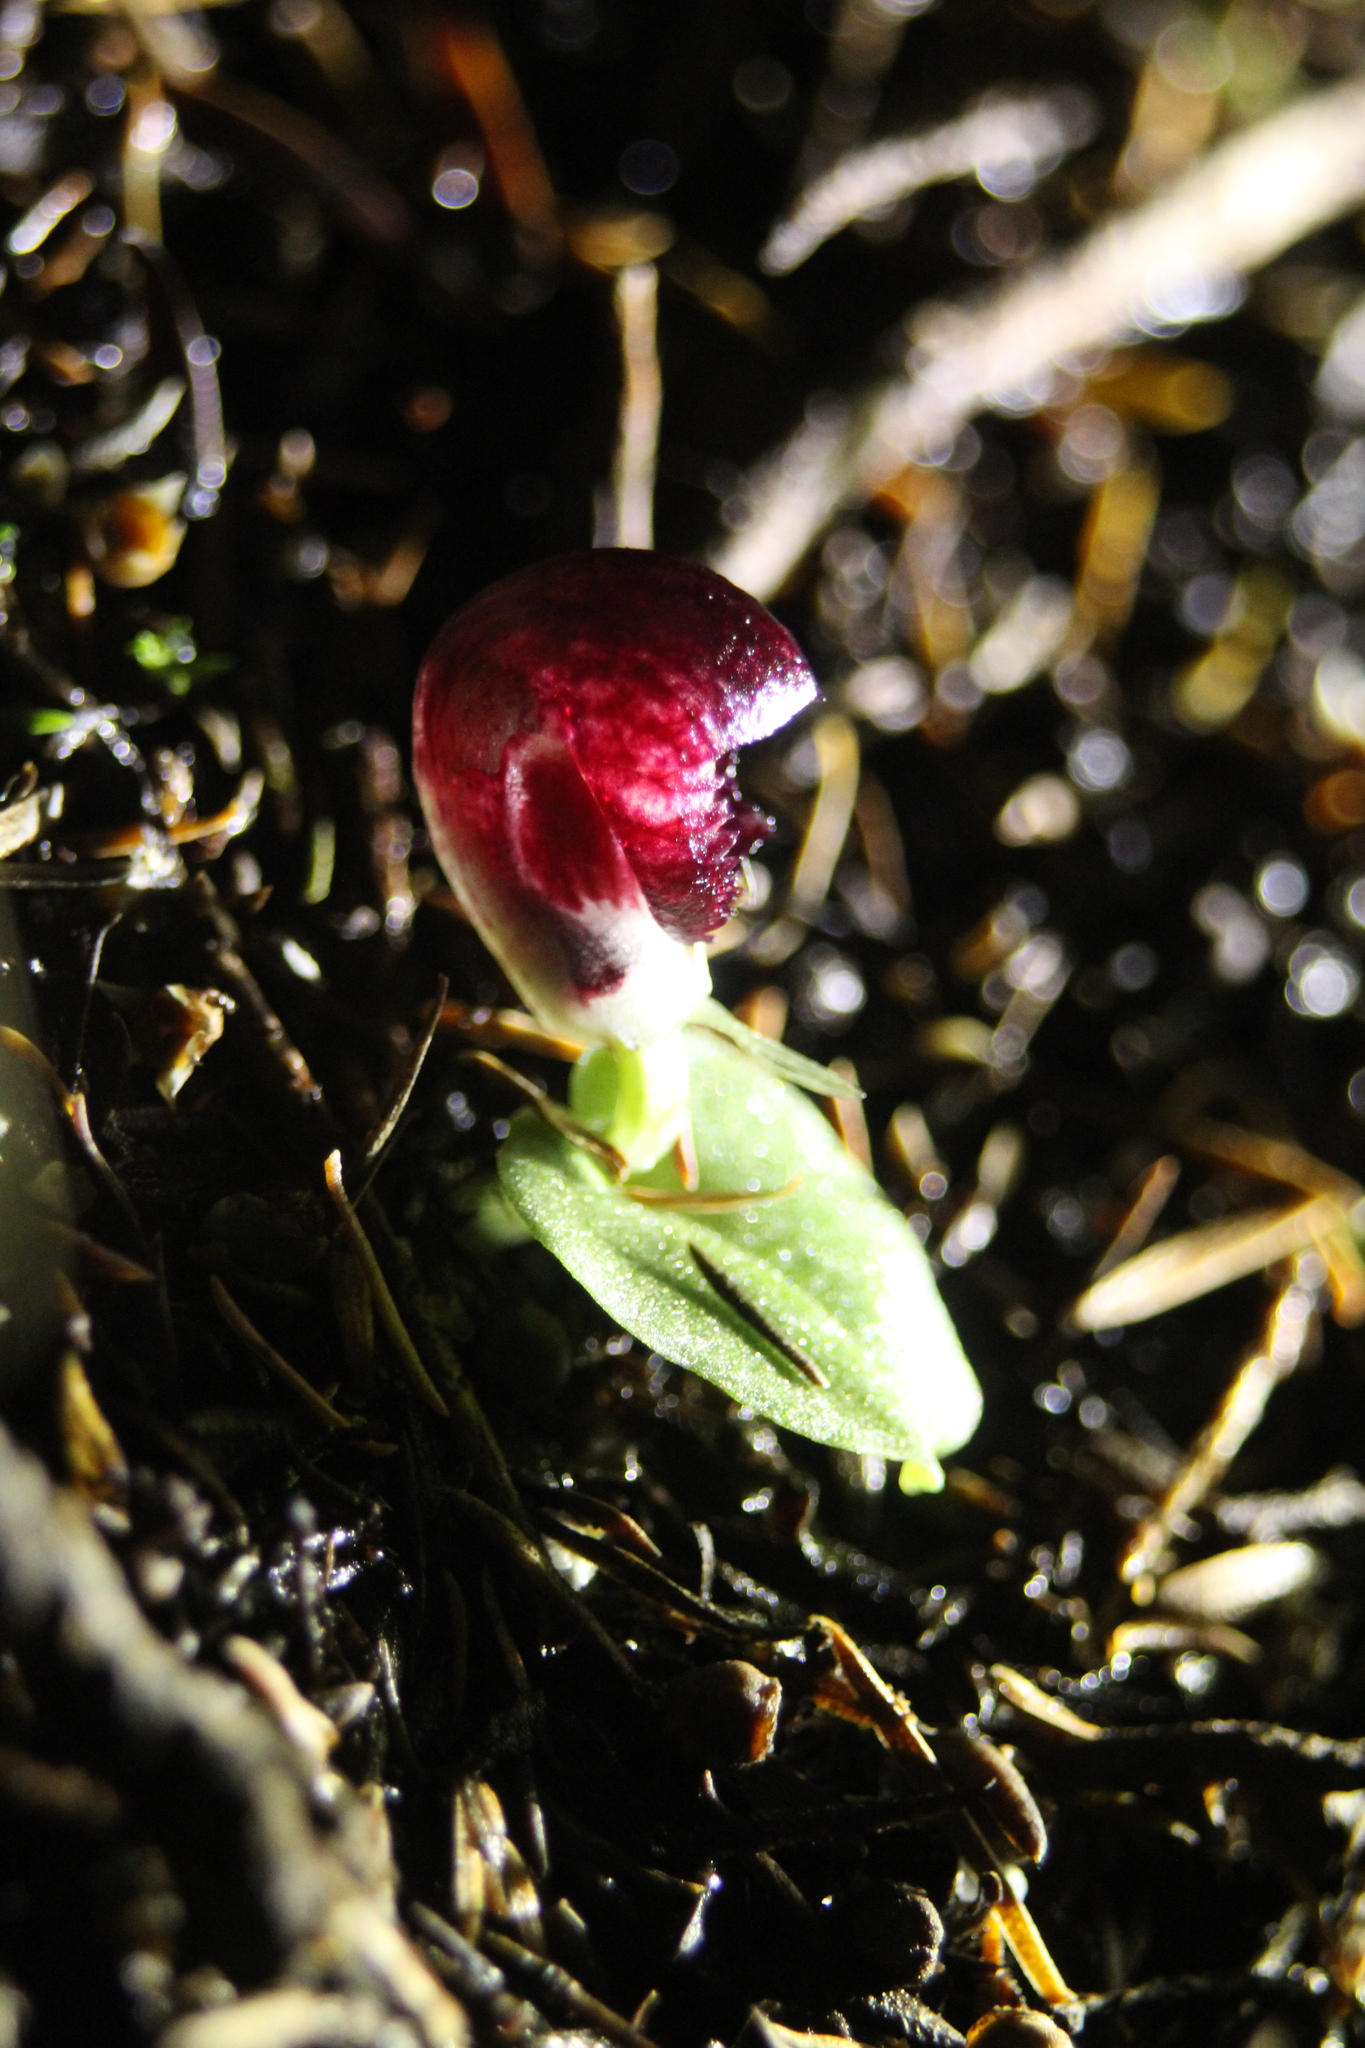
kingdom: Plantae
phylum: Tracheophyta
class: Liliopsida
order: Asparagales
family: Orchidaceae
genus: Corybas
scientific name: Corybas recurvus
